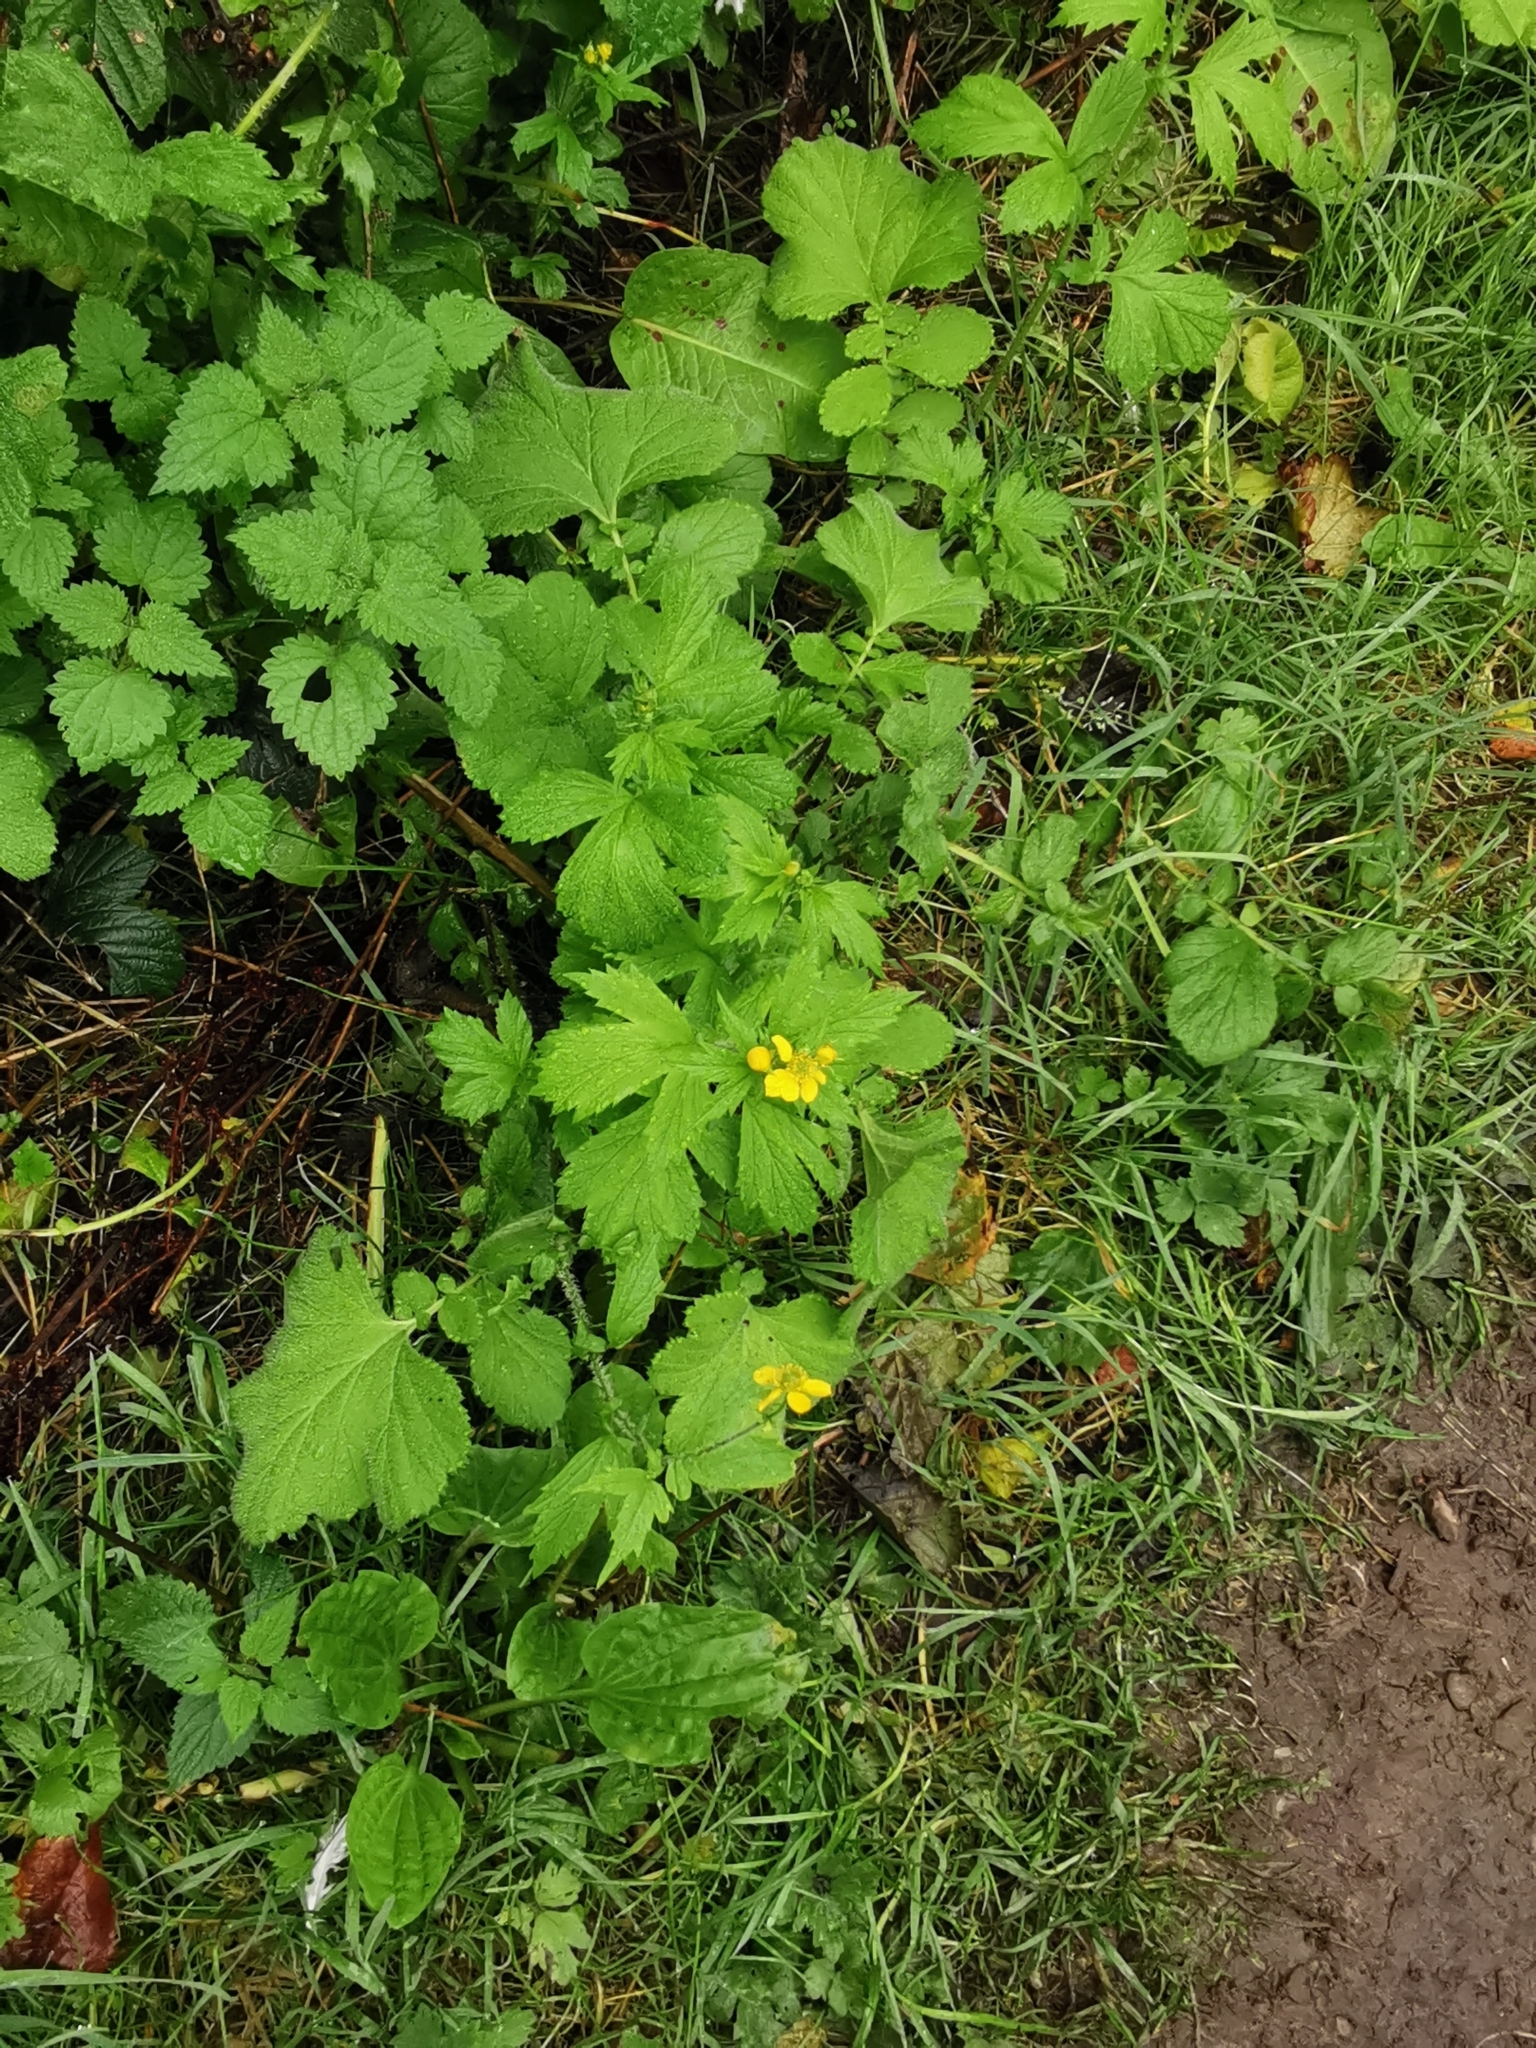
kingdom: Plantae
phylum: Tracheophyta
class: Magnoliopsida
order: Rosales
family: Rosaceae
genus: Geum
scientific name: Geum macrophyllum
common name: Large-leaved avens
